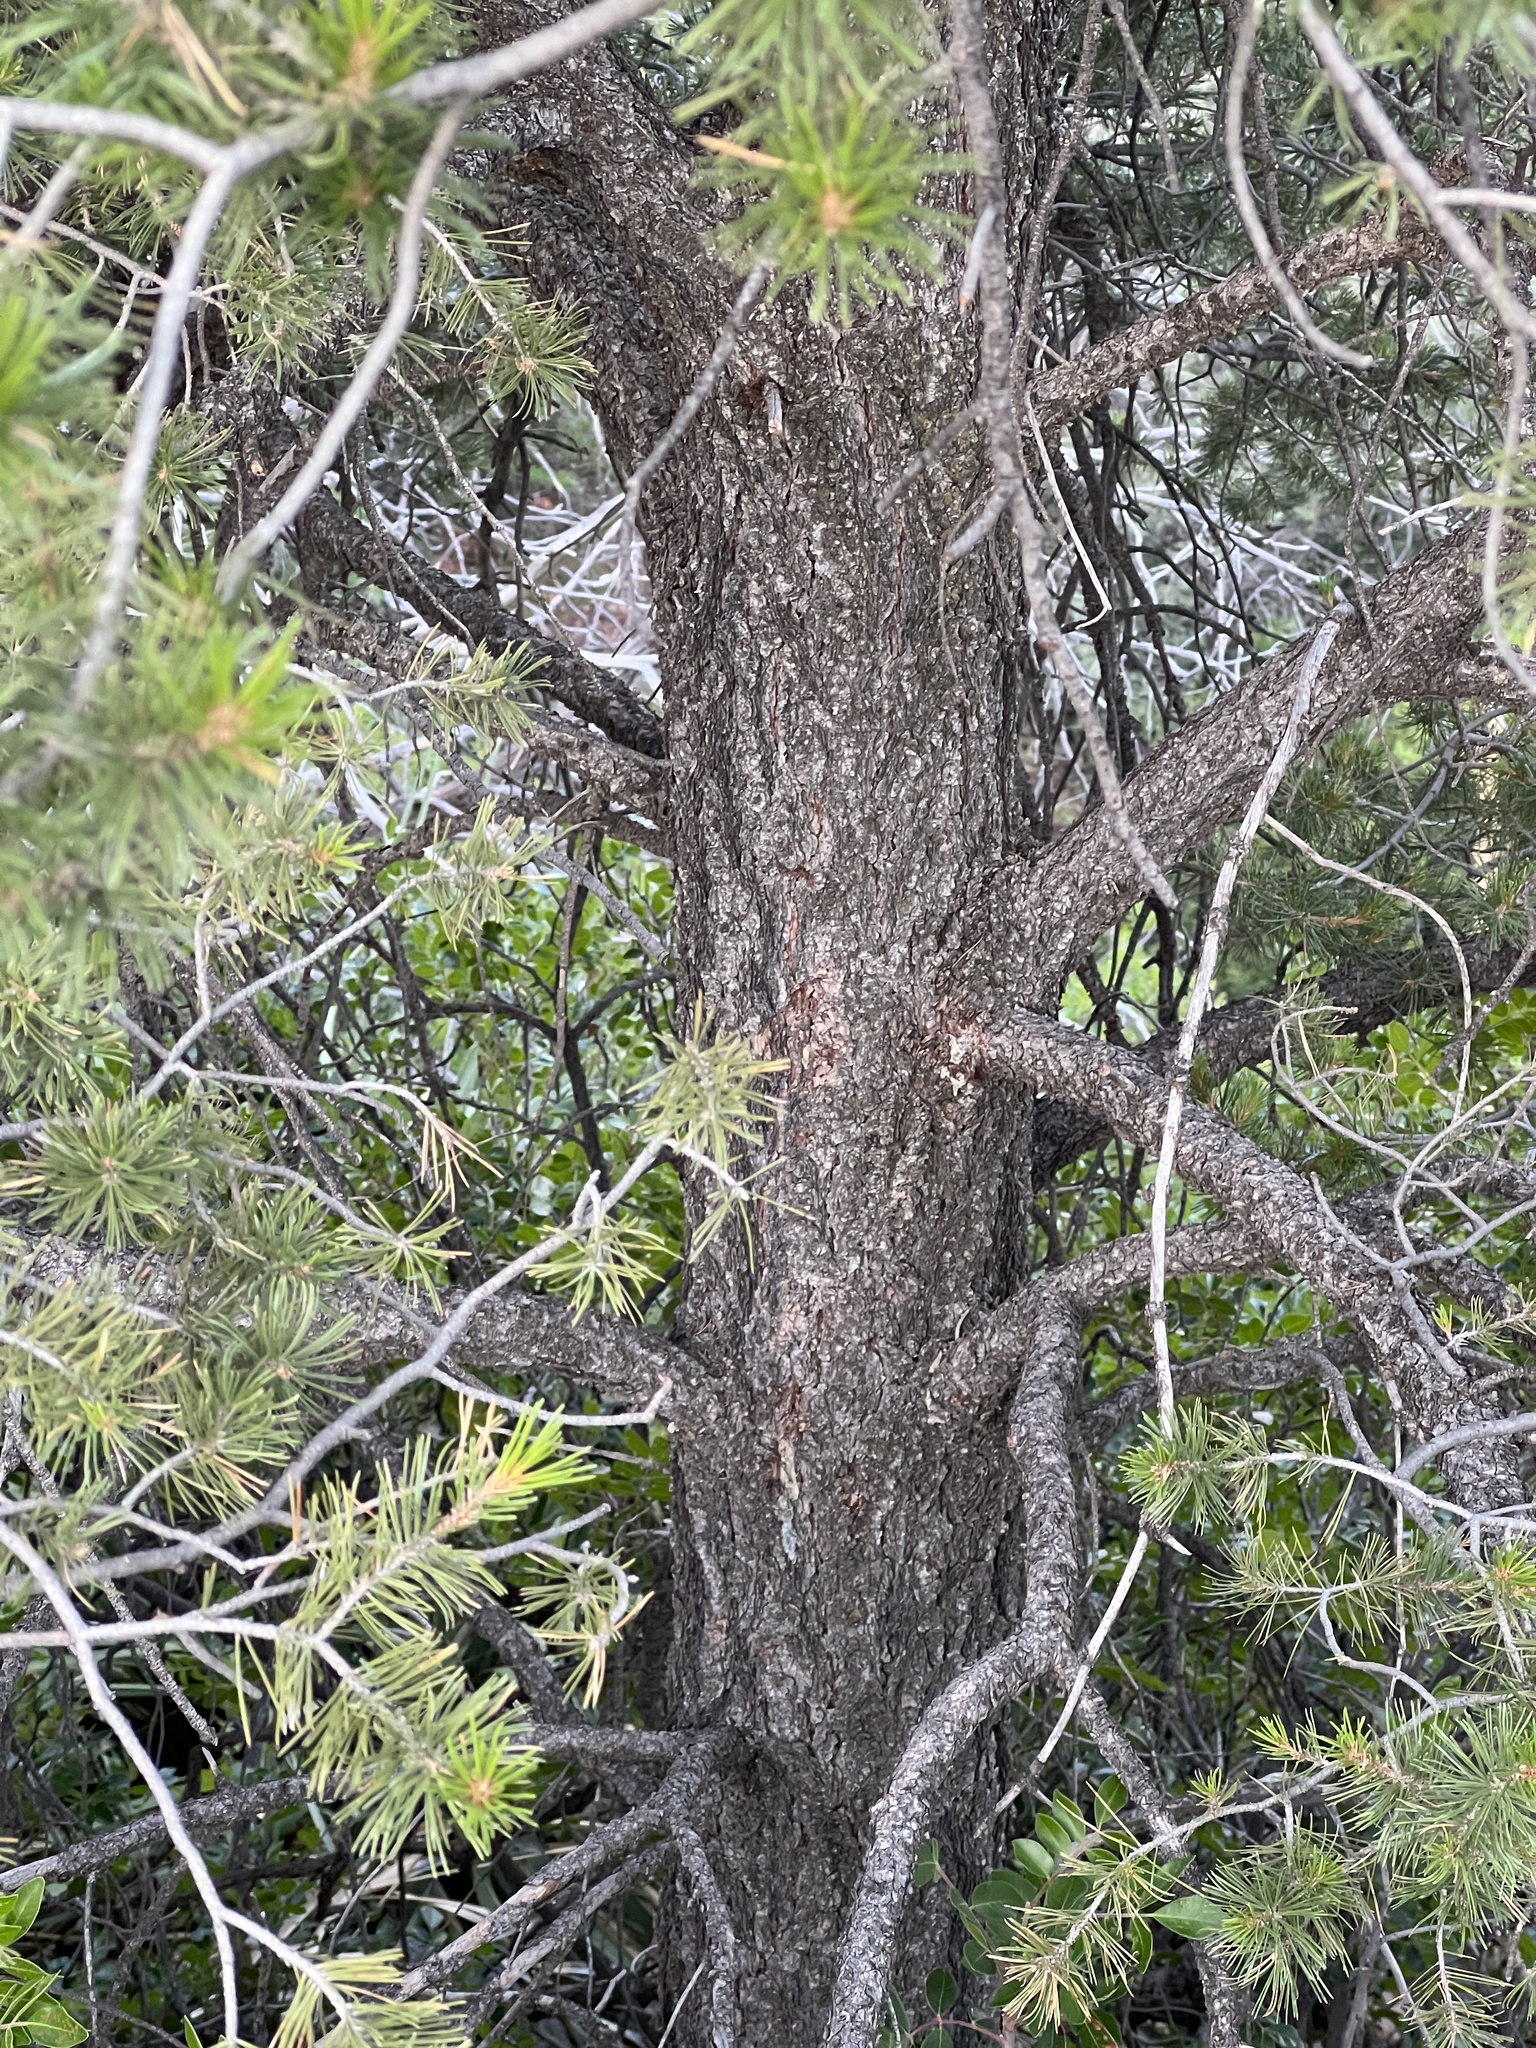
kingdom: Plantae
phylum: Tracheophyta
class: Pinopsida
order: Pinales
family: Pinaceae
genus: Pinus
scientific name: Pinus cembroides
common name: Mexican nut pine
